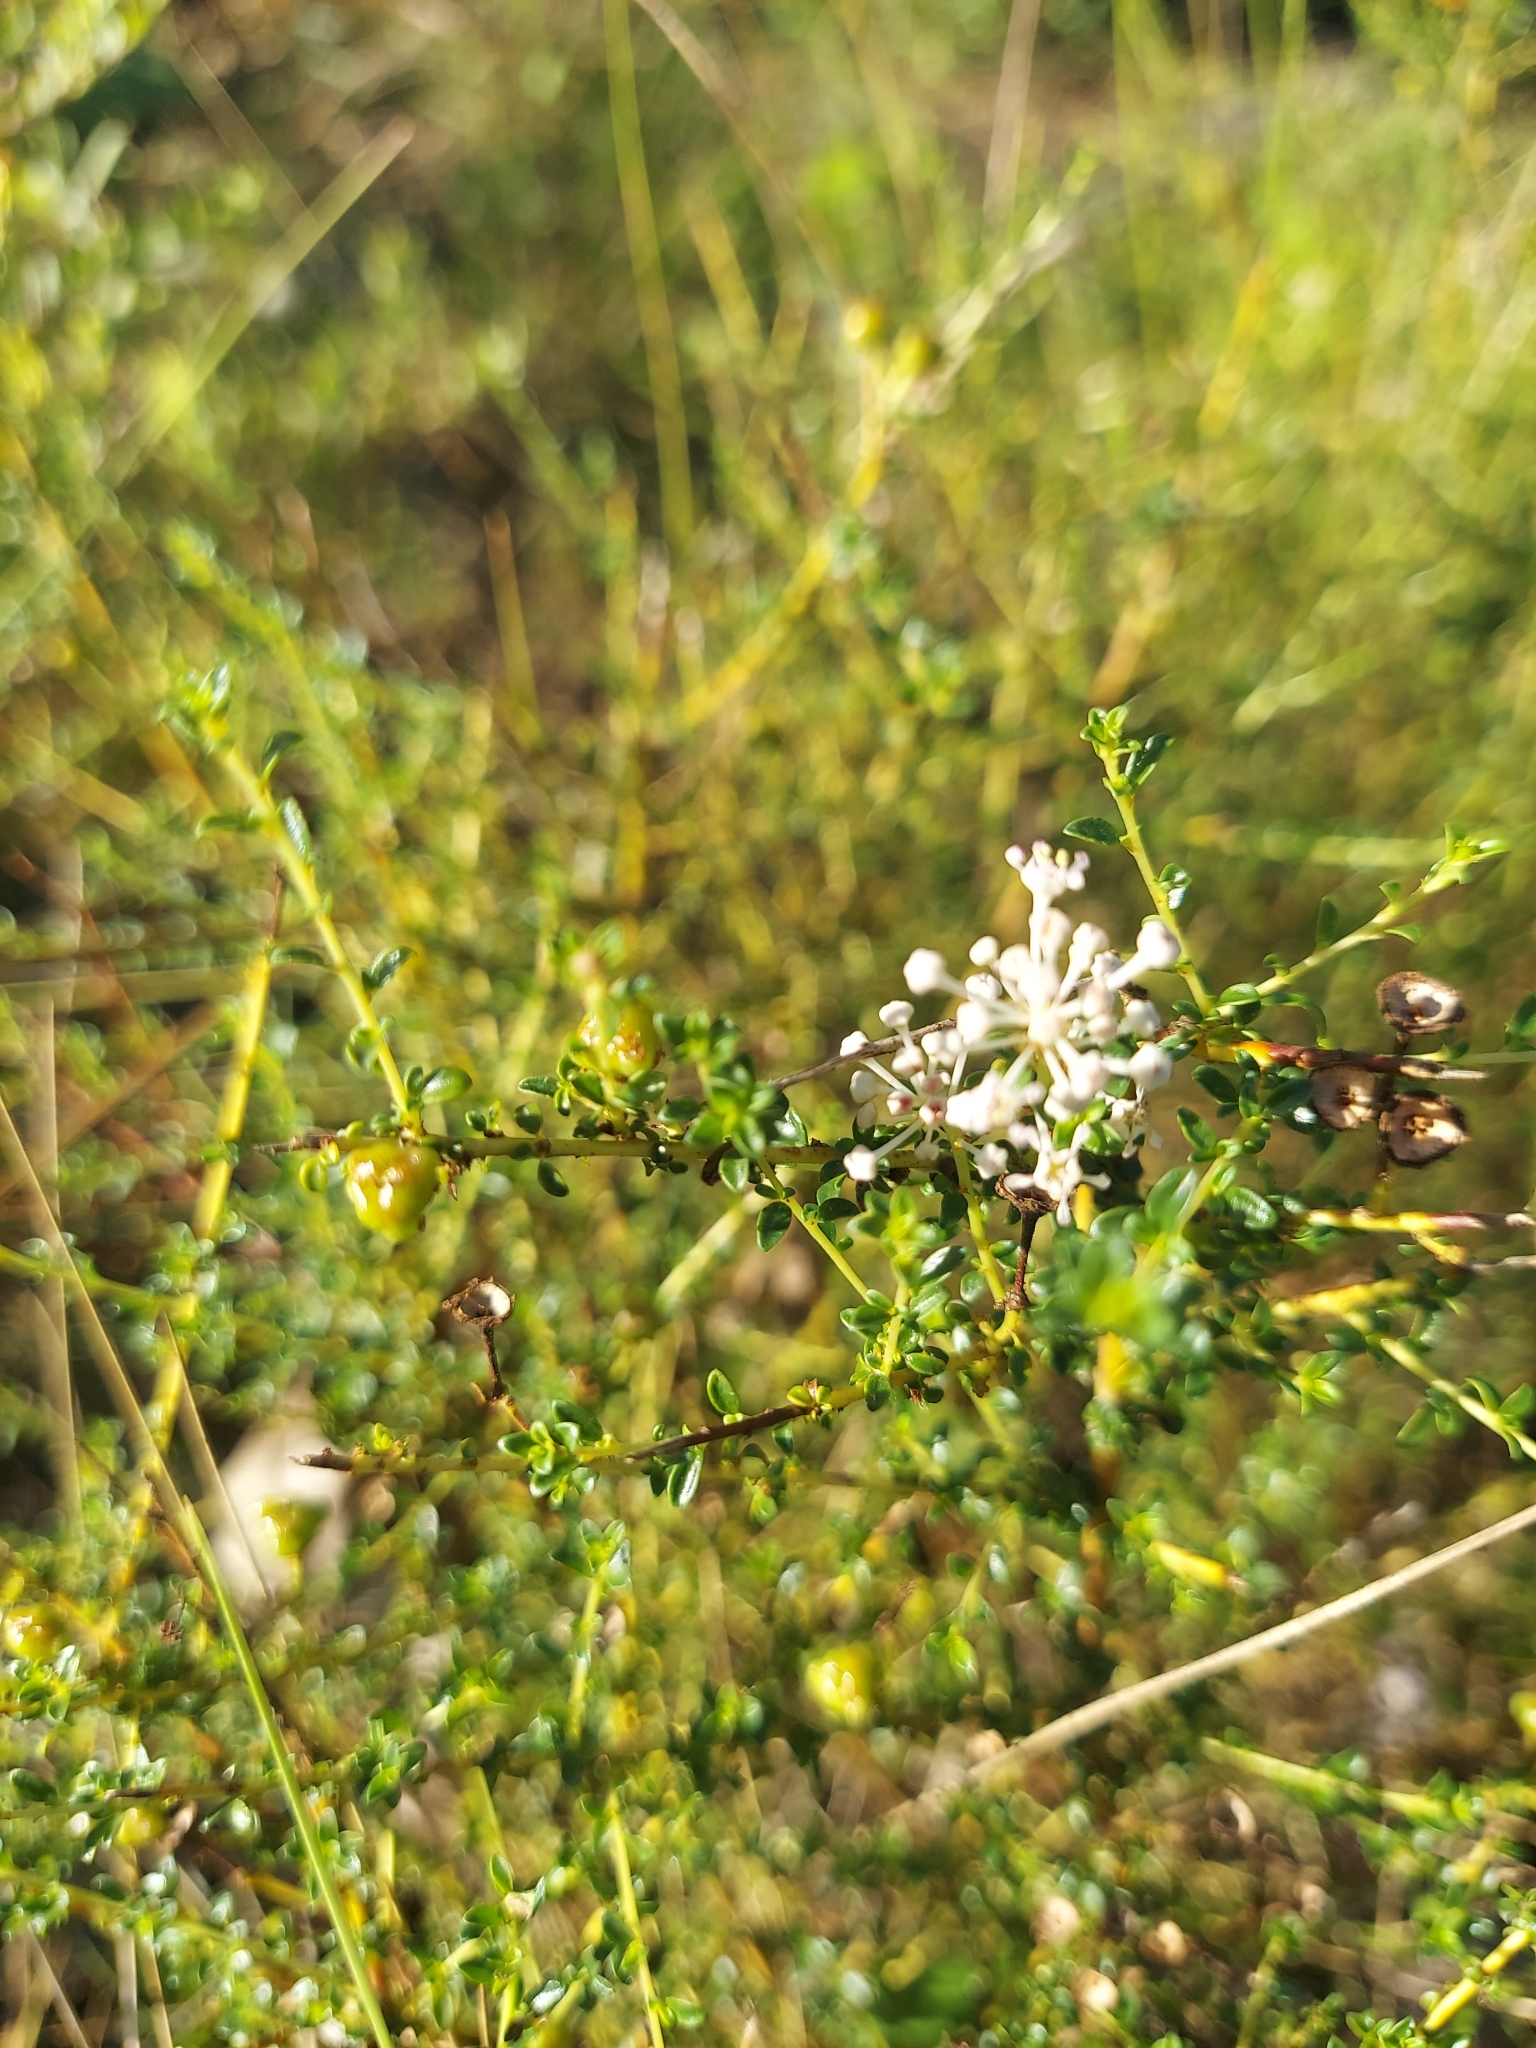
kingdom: Plantae
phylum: Tracheophyta
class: Magnoliopsida
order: Rosales
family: Rhamnaceae
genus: Ceanothus
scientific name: Ceanothus microphyllus
